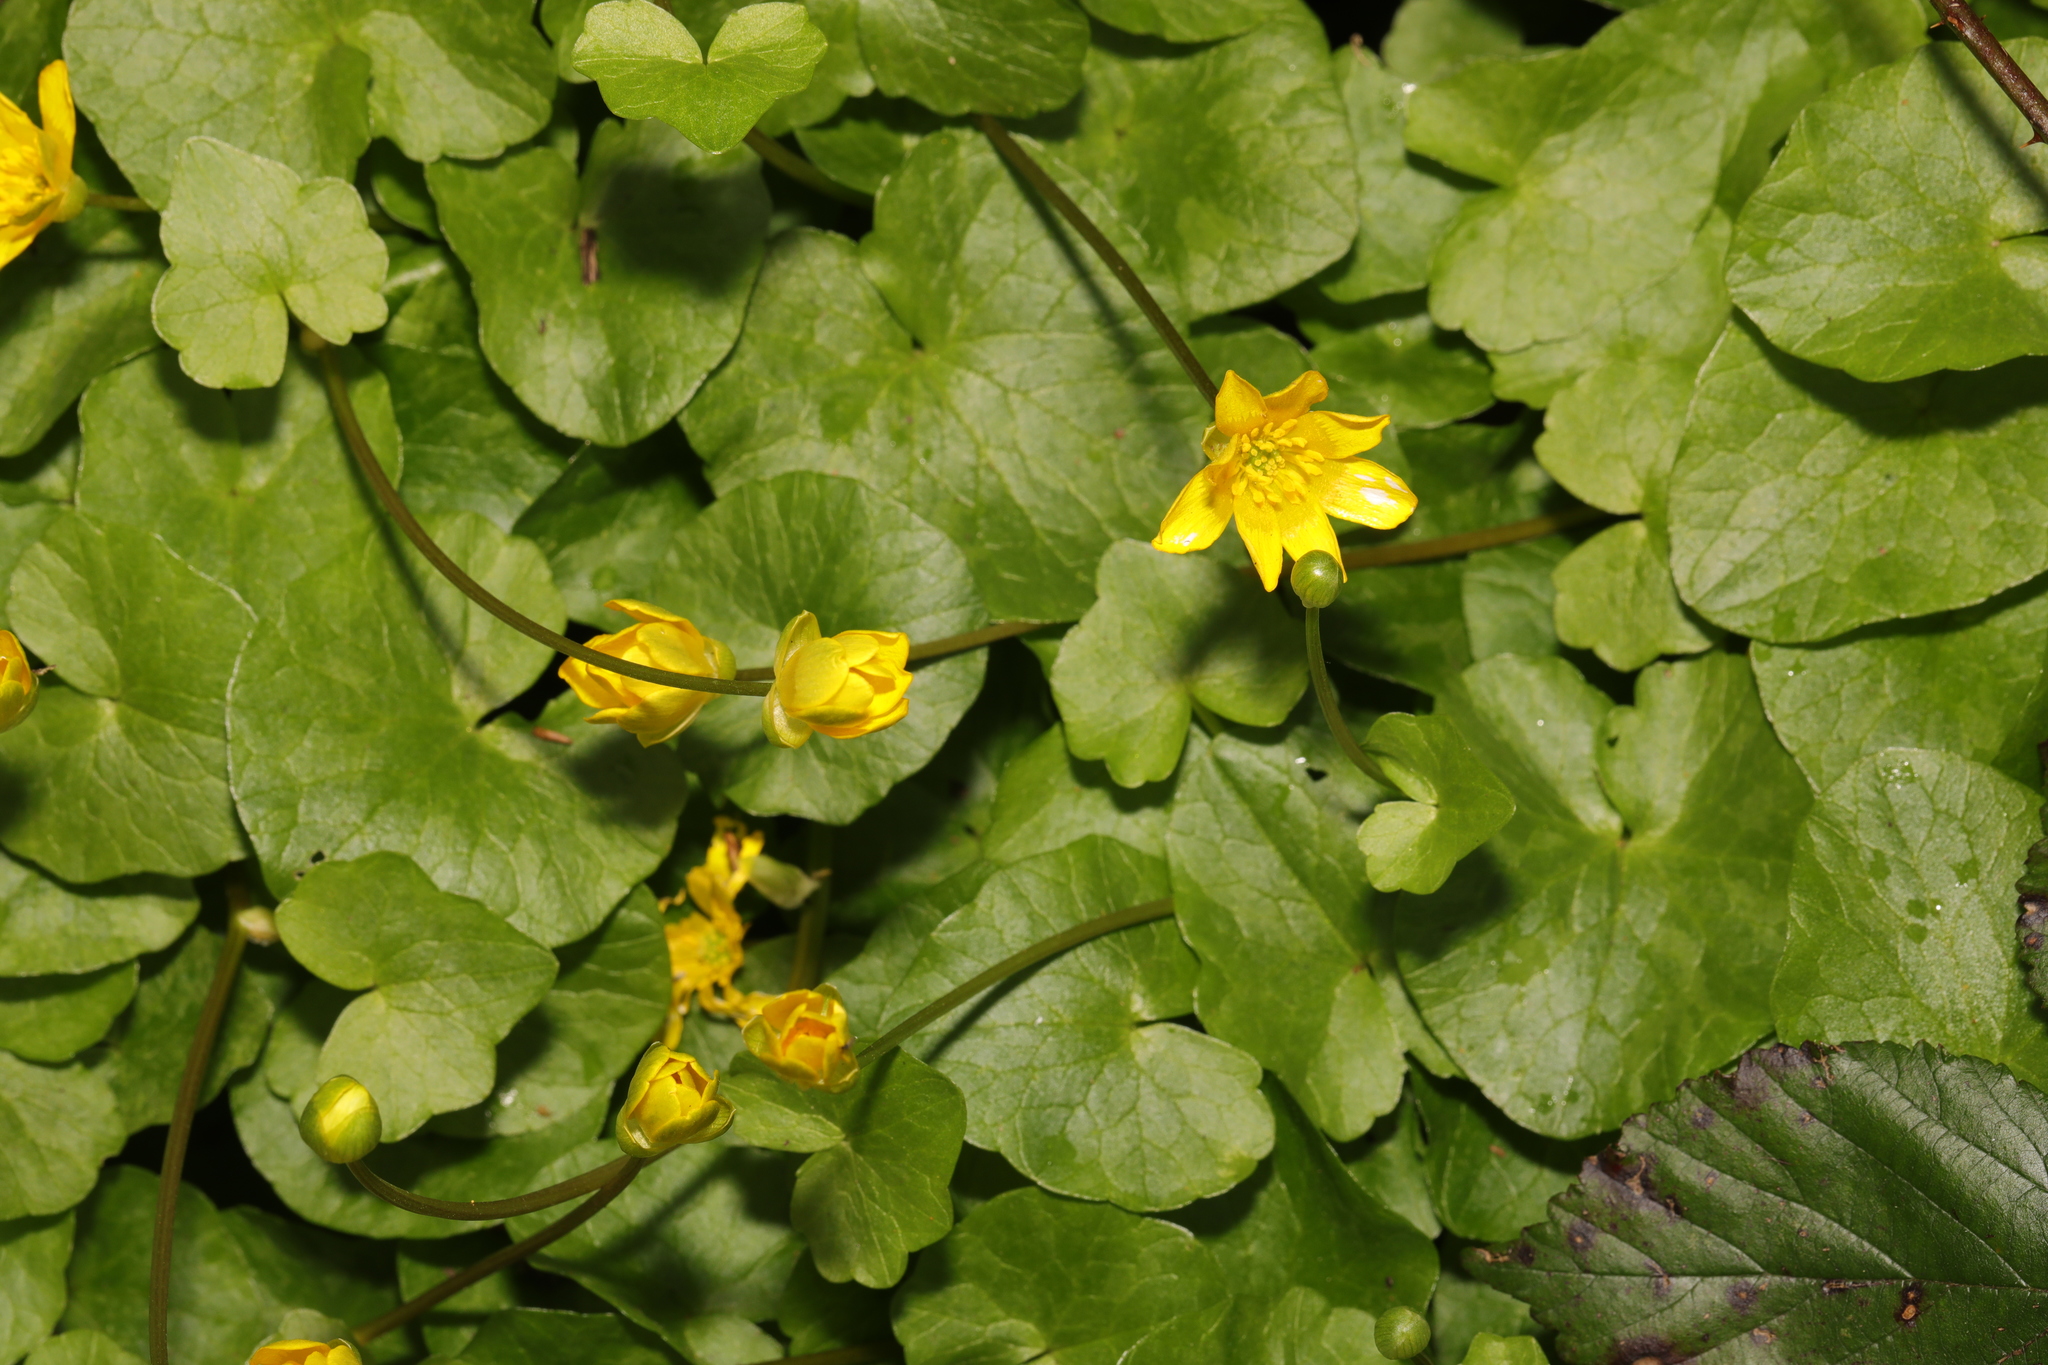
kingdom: Plantae
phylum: Tracheophyta
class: Magnoliopsida
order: Ranunculales
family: Ranunculaceae
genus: Ficaria
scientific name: Ficaria verna
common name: Lesser celandine
